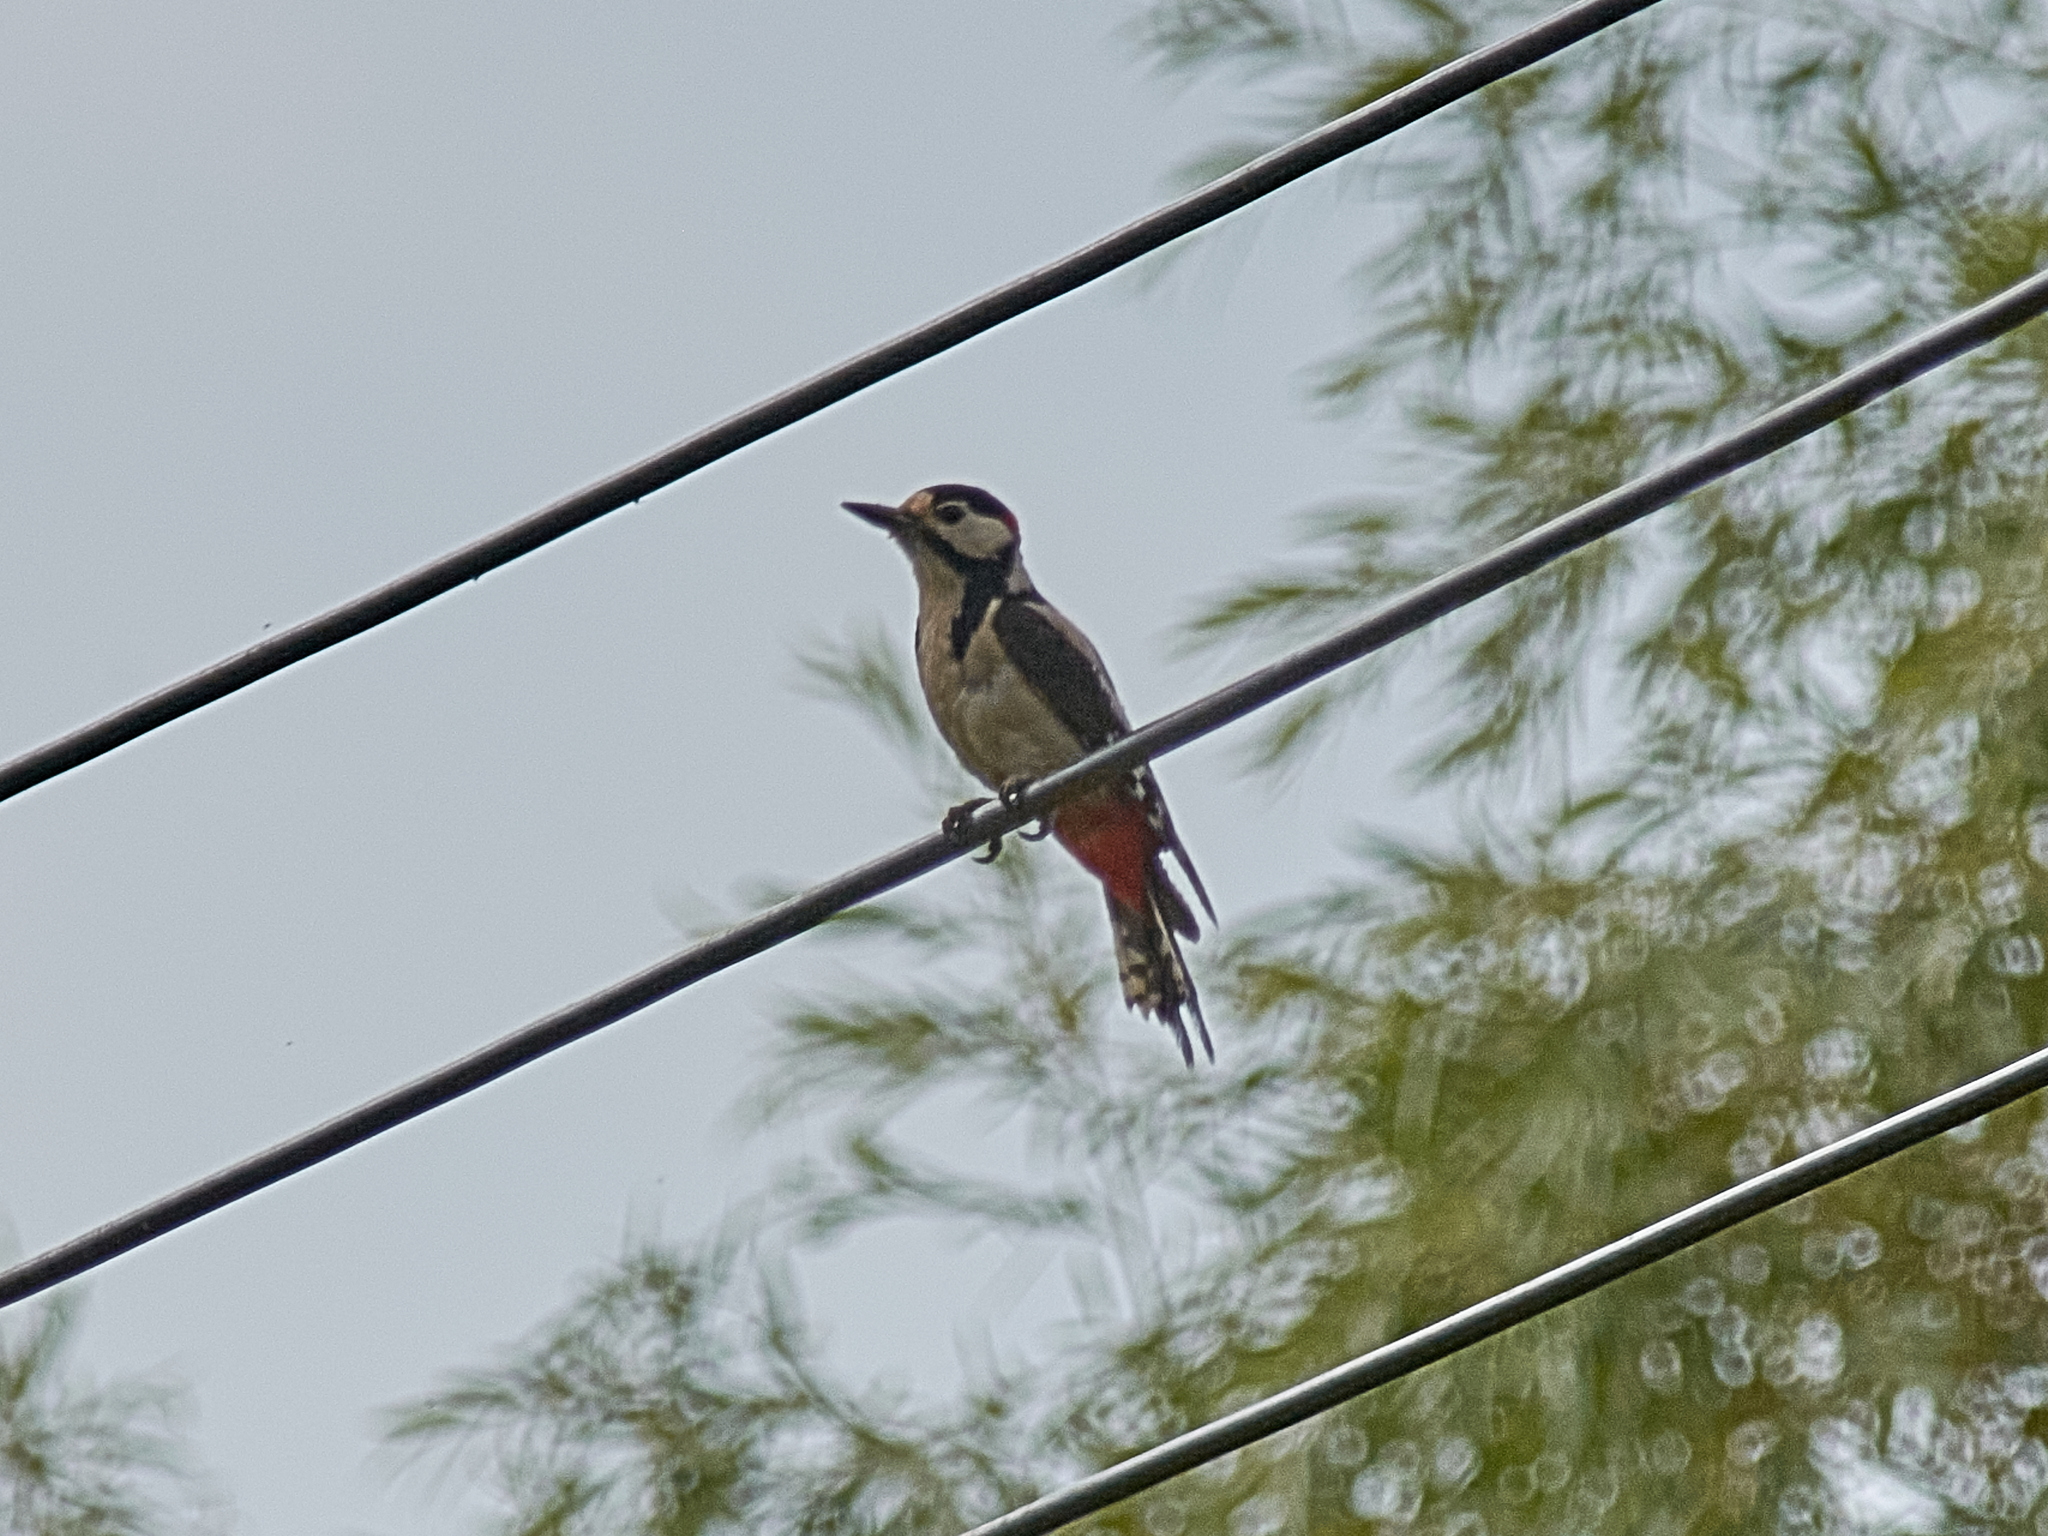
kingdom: Animalia
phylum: Chordata
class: Aves
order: Piciformes
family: Picidae
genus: Dendrocopos
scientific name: Dendrocopos major
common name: Great spotted woodpecker
